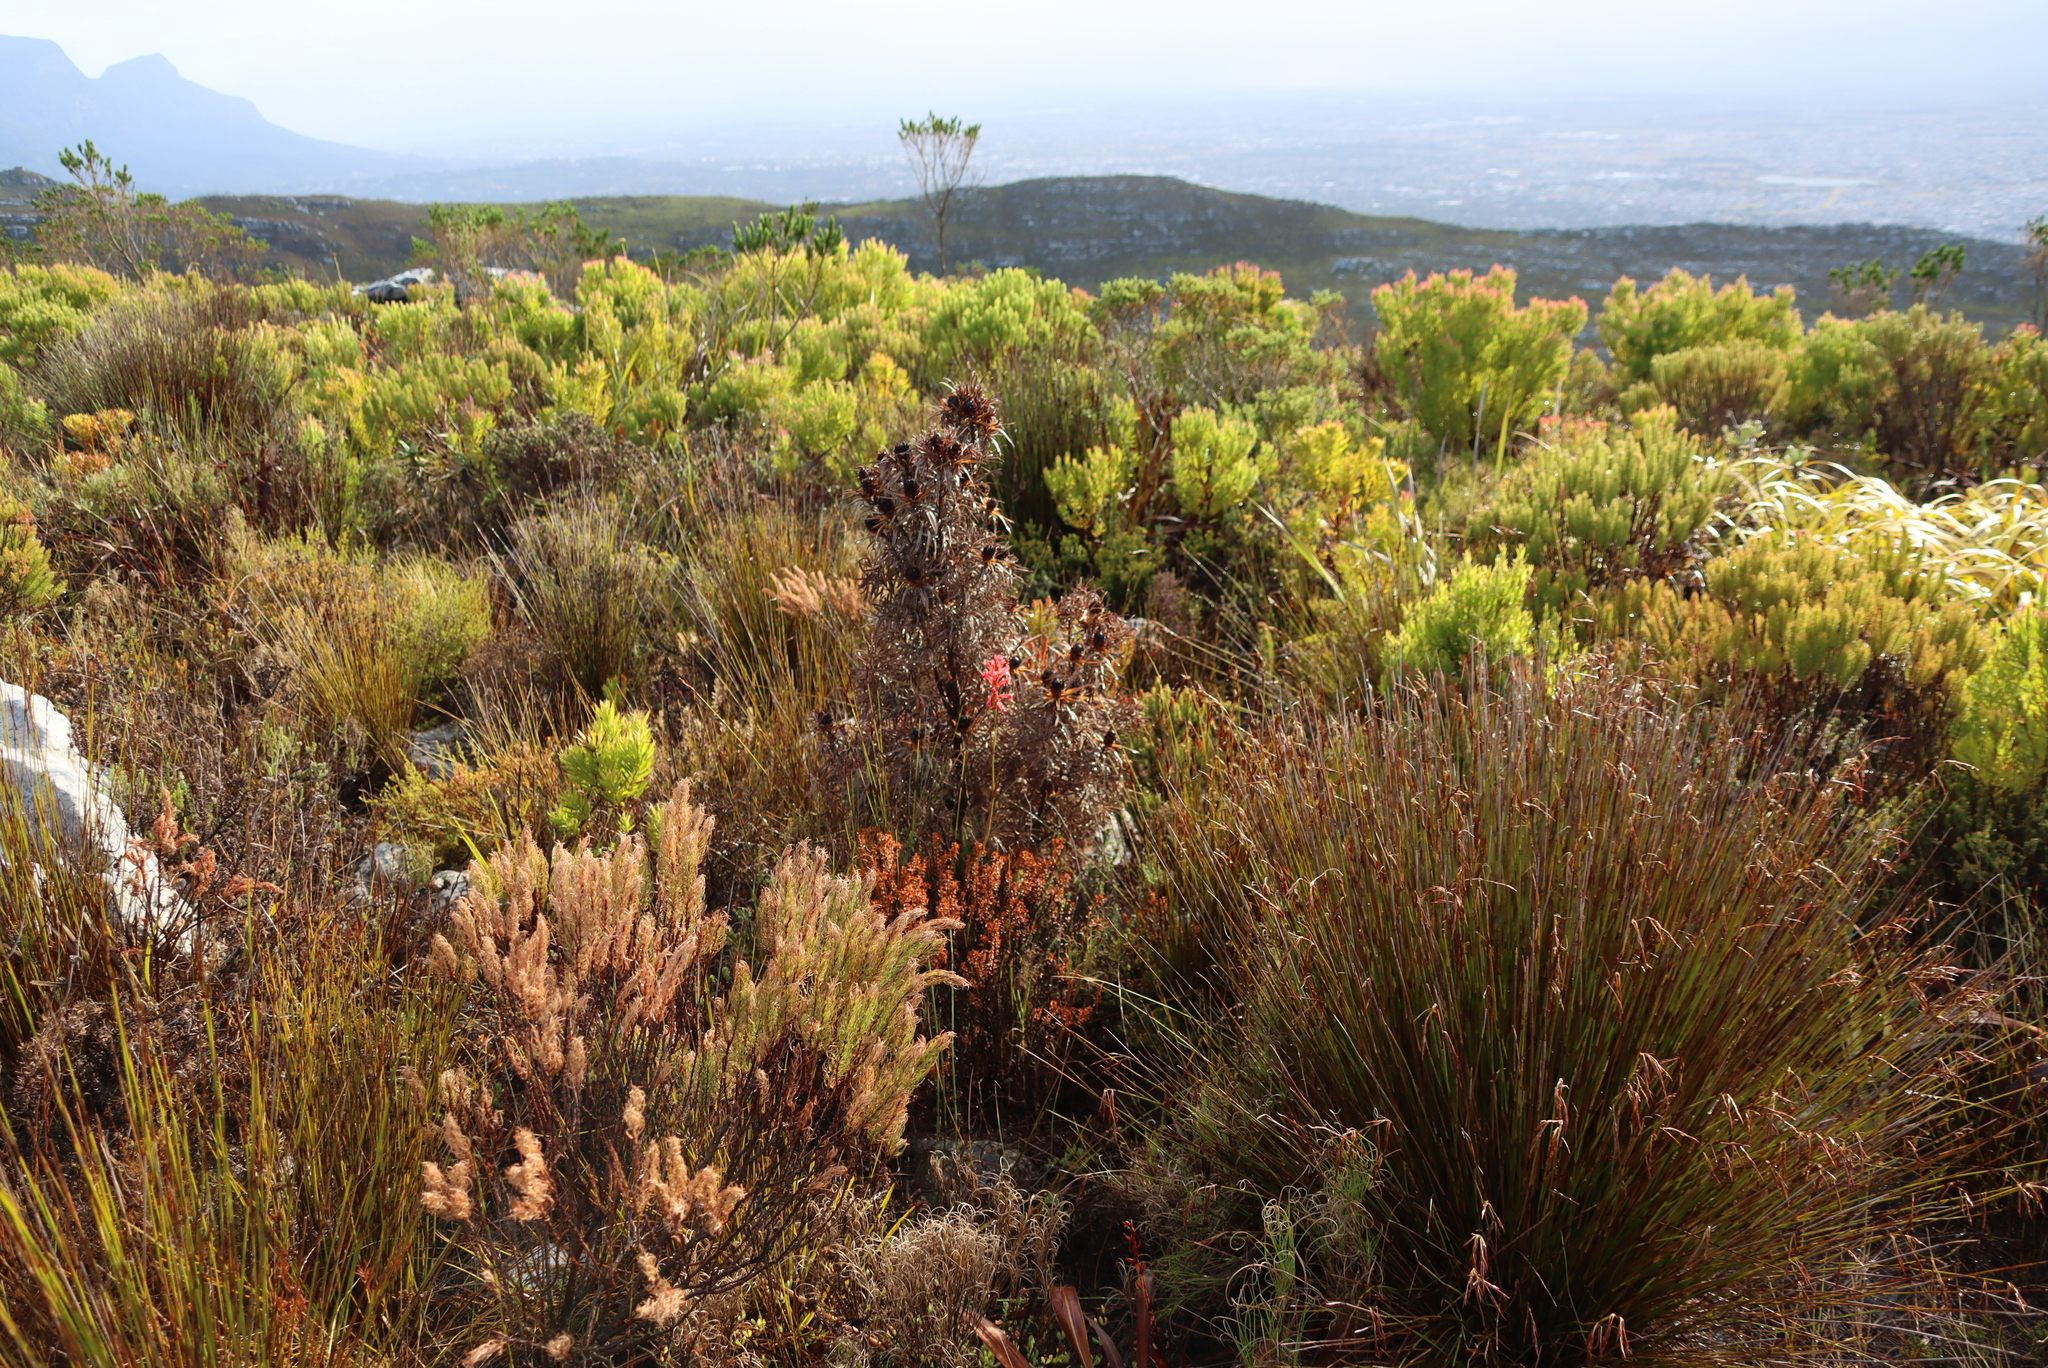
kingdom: Plantae
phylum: Tracheophyta
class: Magnoliopsida
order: Proteales
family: Proteaceae
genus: Leucadendron
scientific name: Leucadendron xanthoconus
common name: Sickle-leaf conebush
